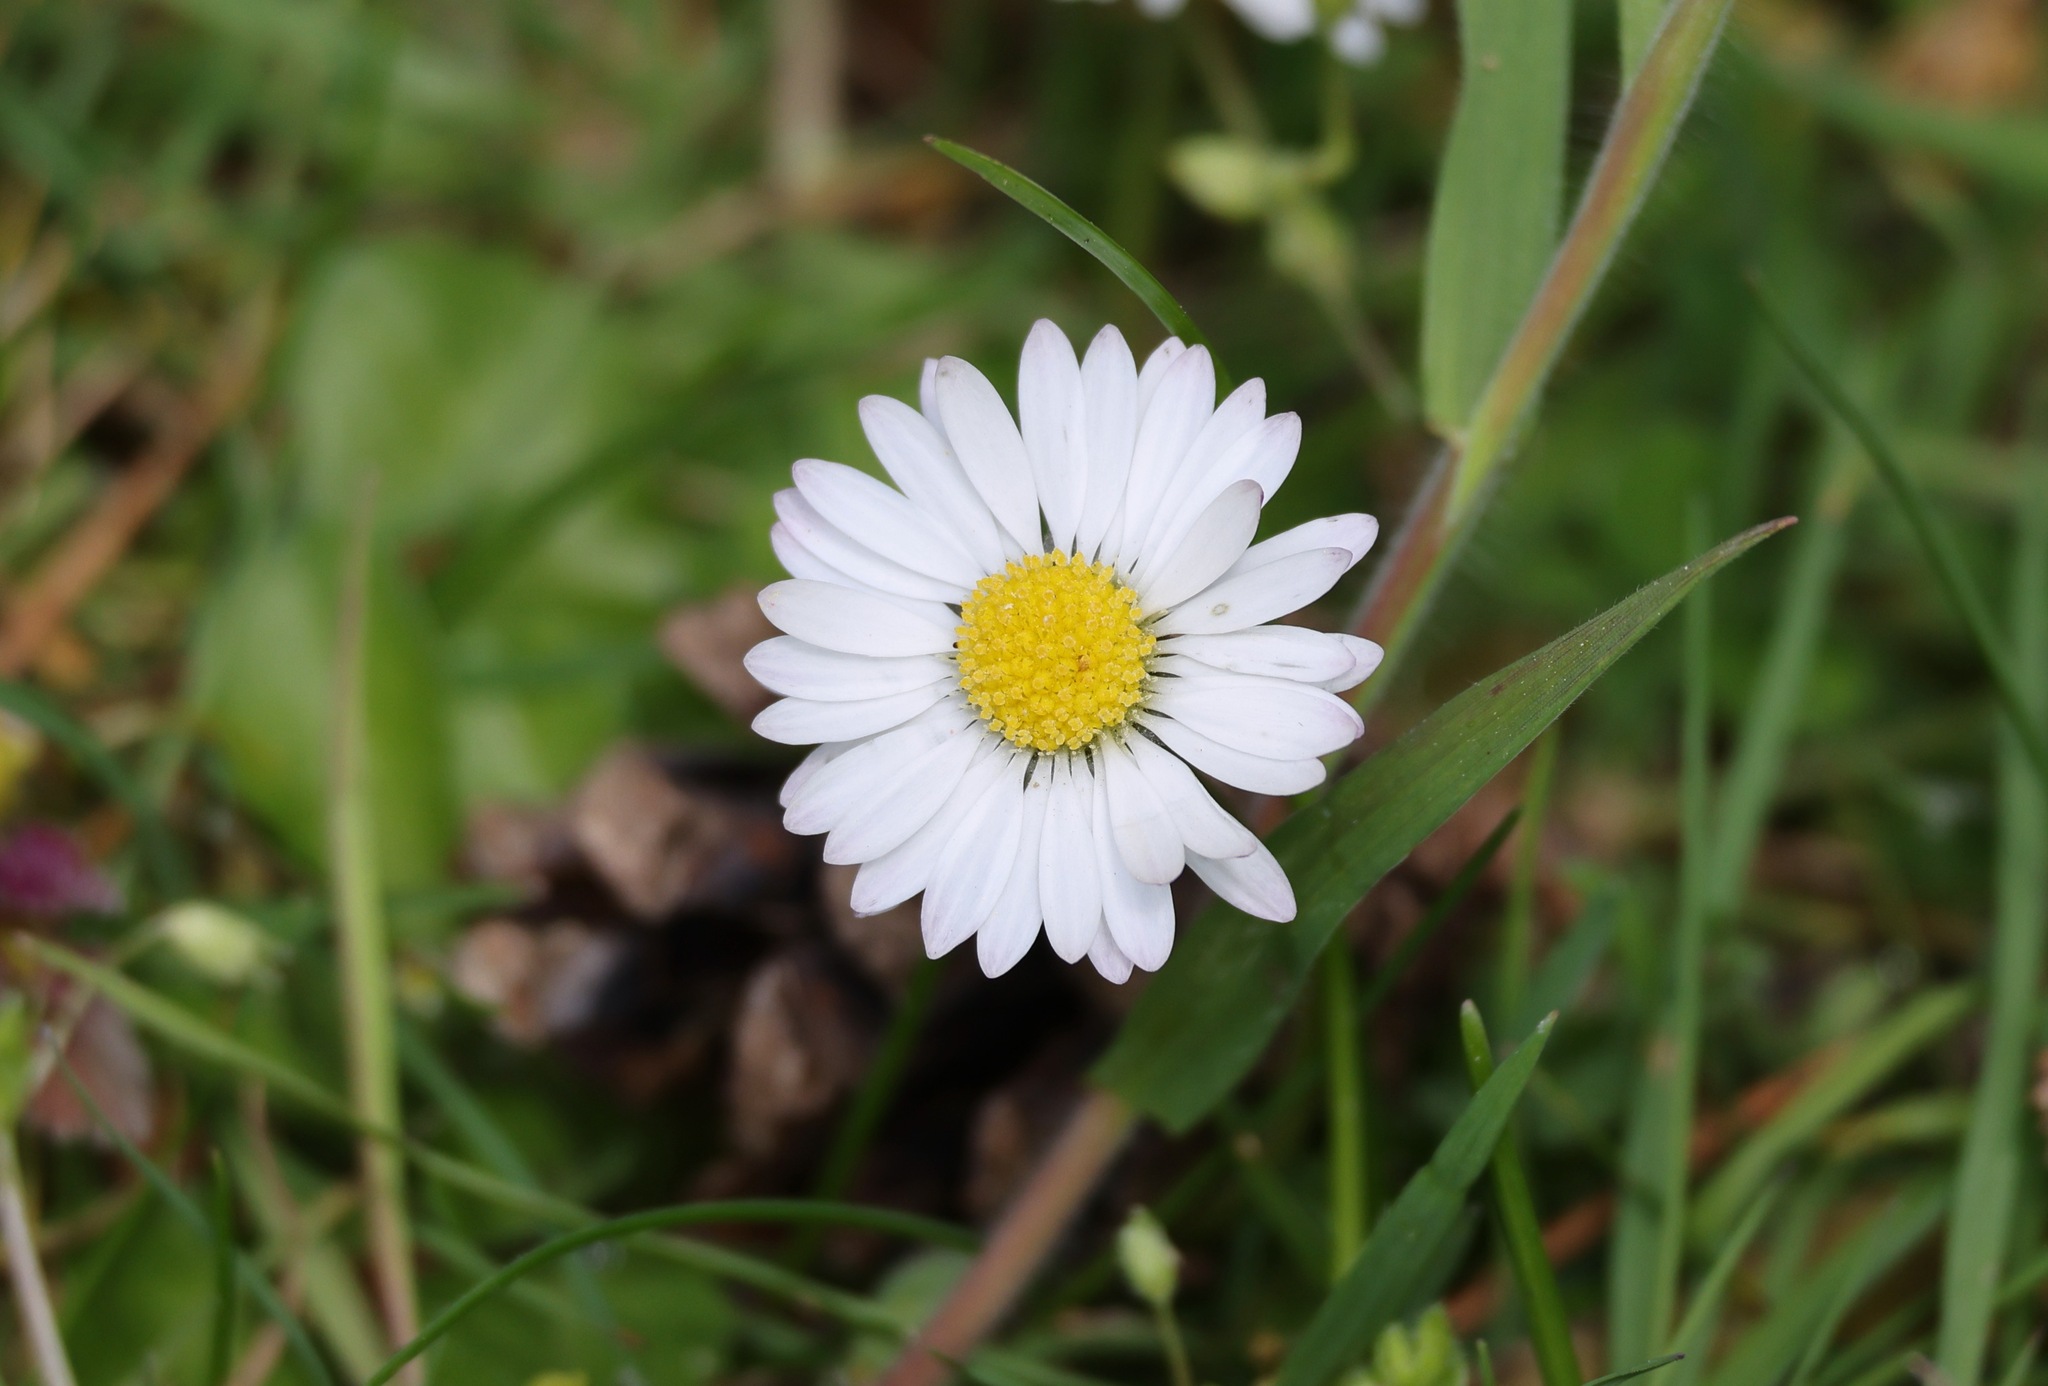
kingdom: Plantae
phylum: Tracheophyta
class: Magnoliopsida
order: Asterales
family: Asteraceae
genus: Bellis
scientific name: Bellis perennis
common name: Lawndaisy
